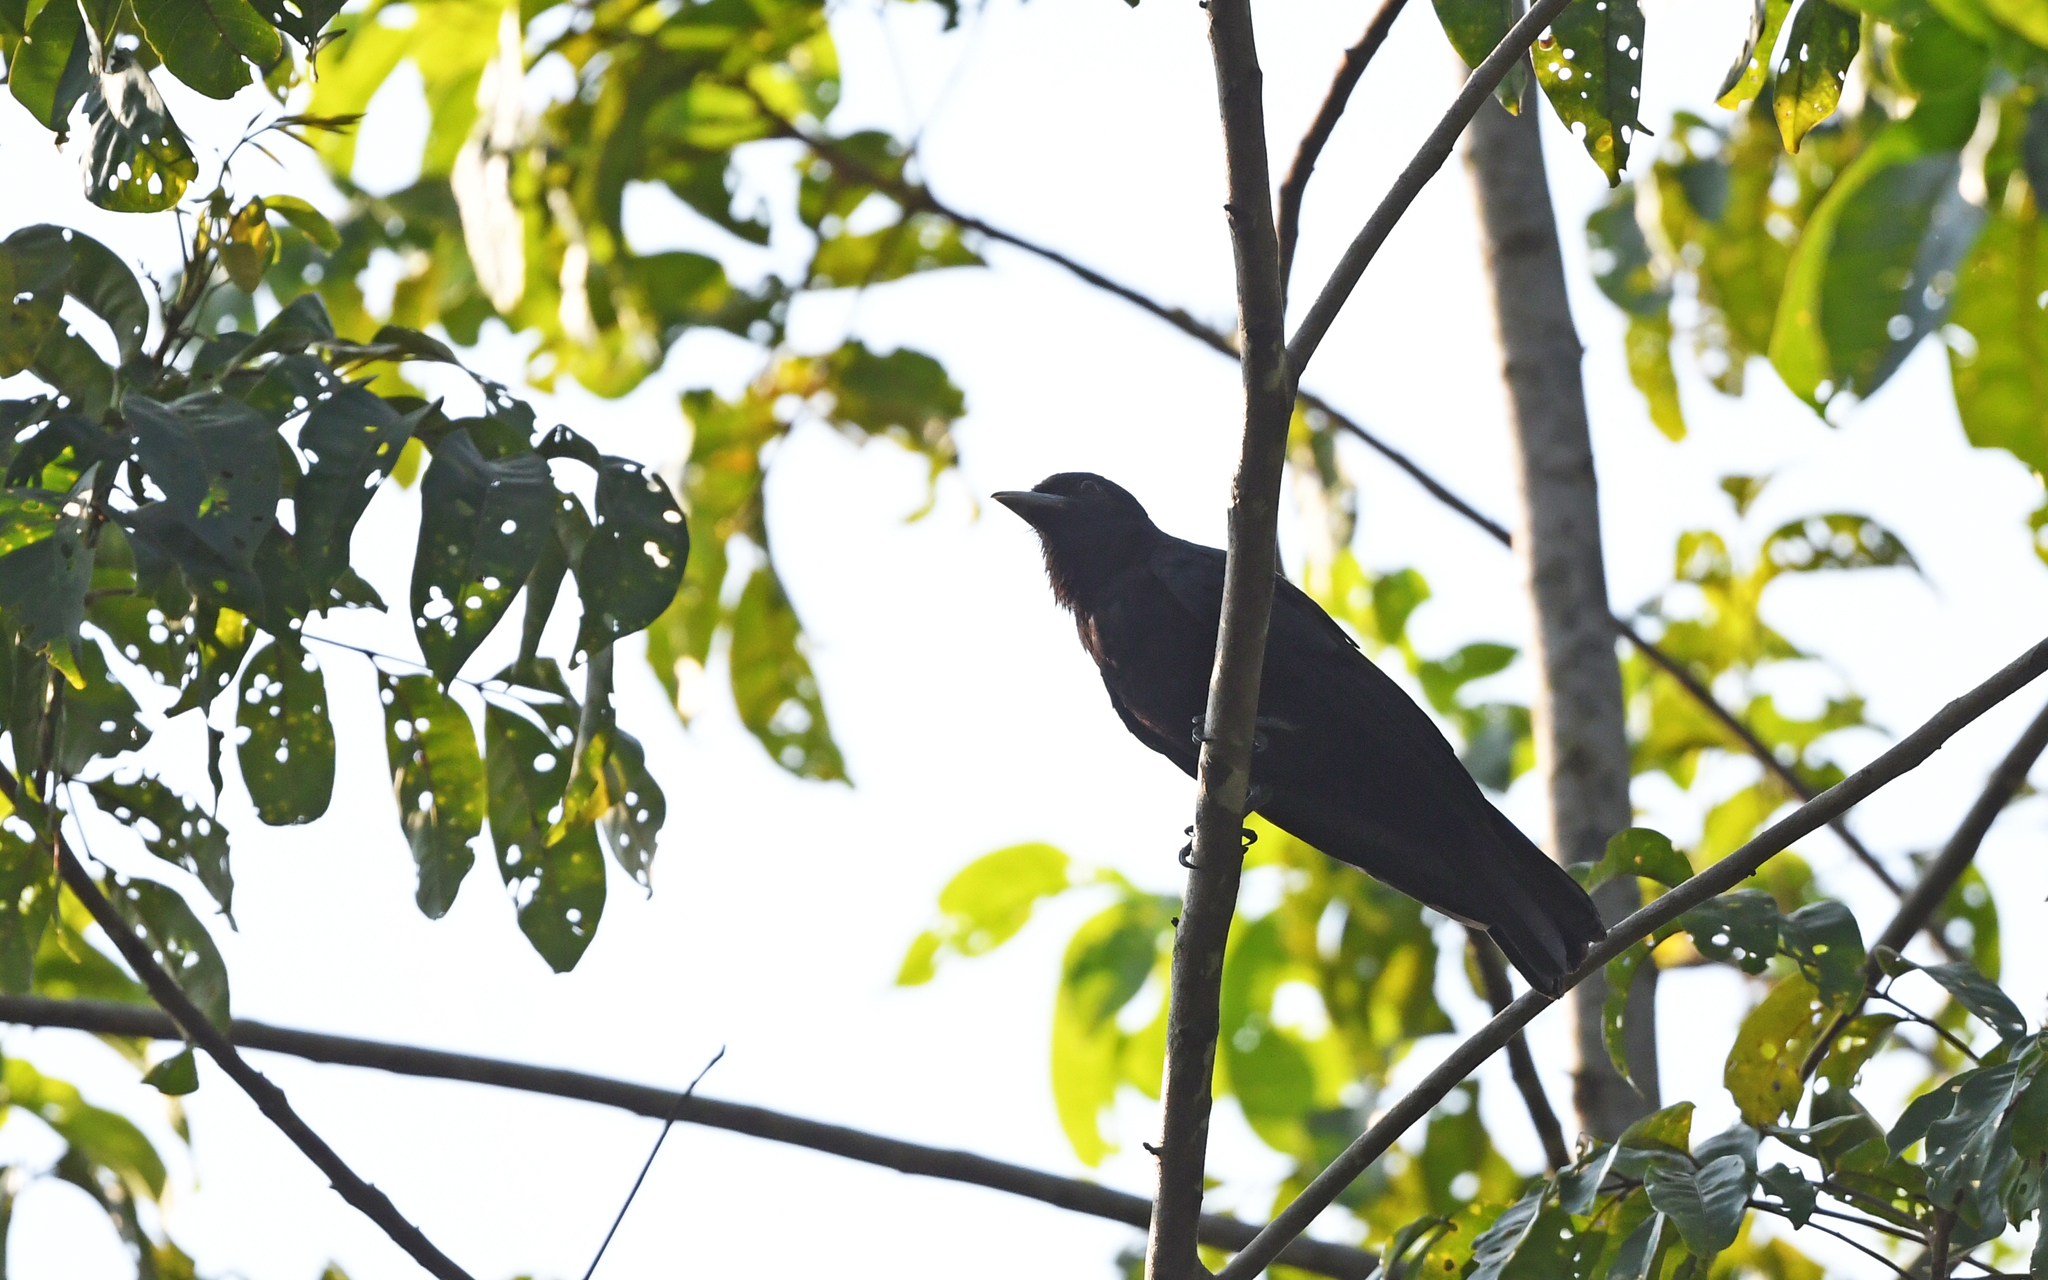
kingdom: Animalia
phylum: Chordata
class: Aves
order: Passeriformes
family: Cotingidae
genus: Querula
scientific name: Querula purpurata
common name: Purple-throated fruitcrow
